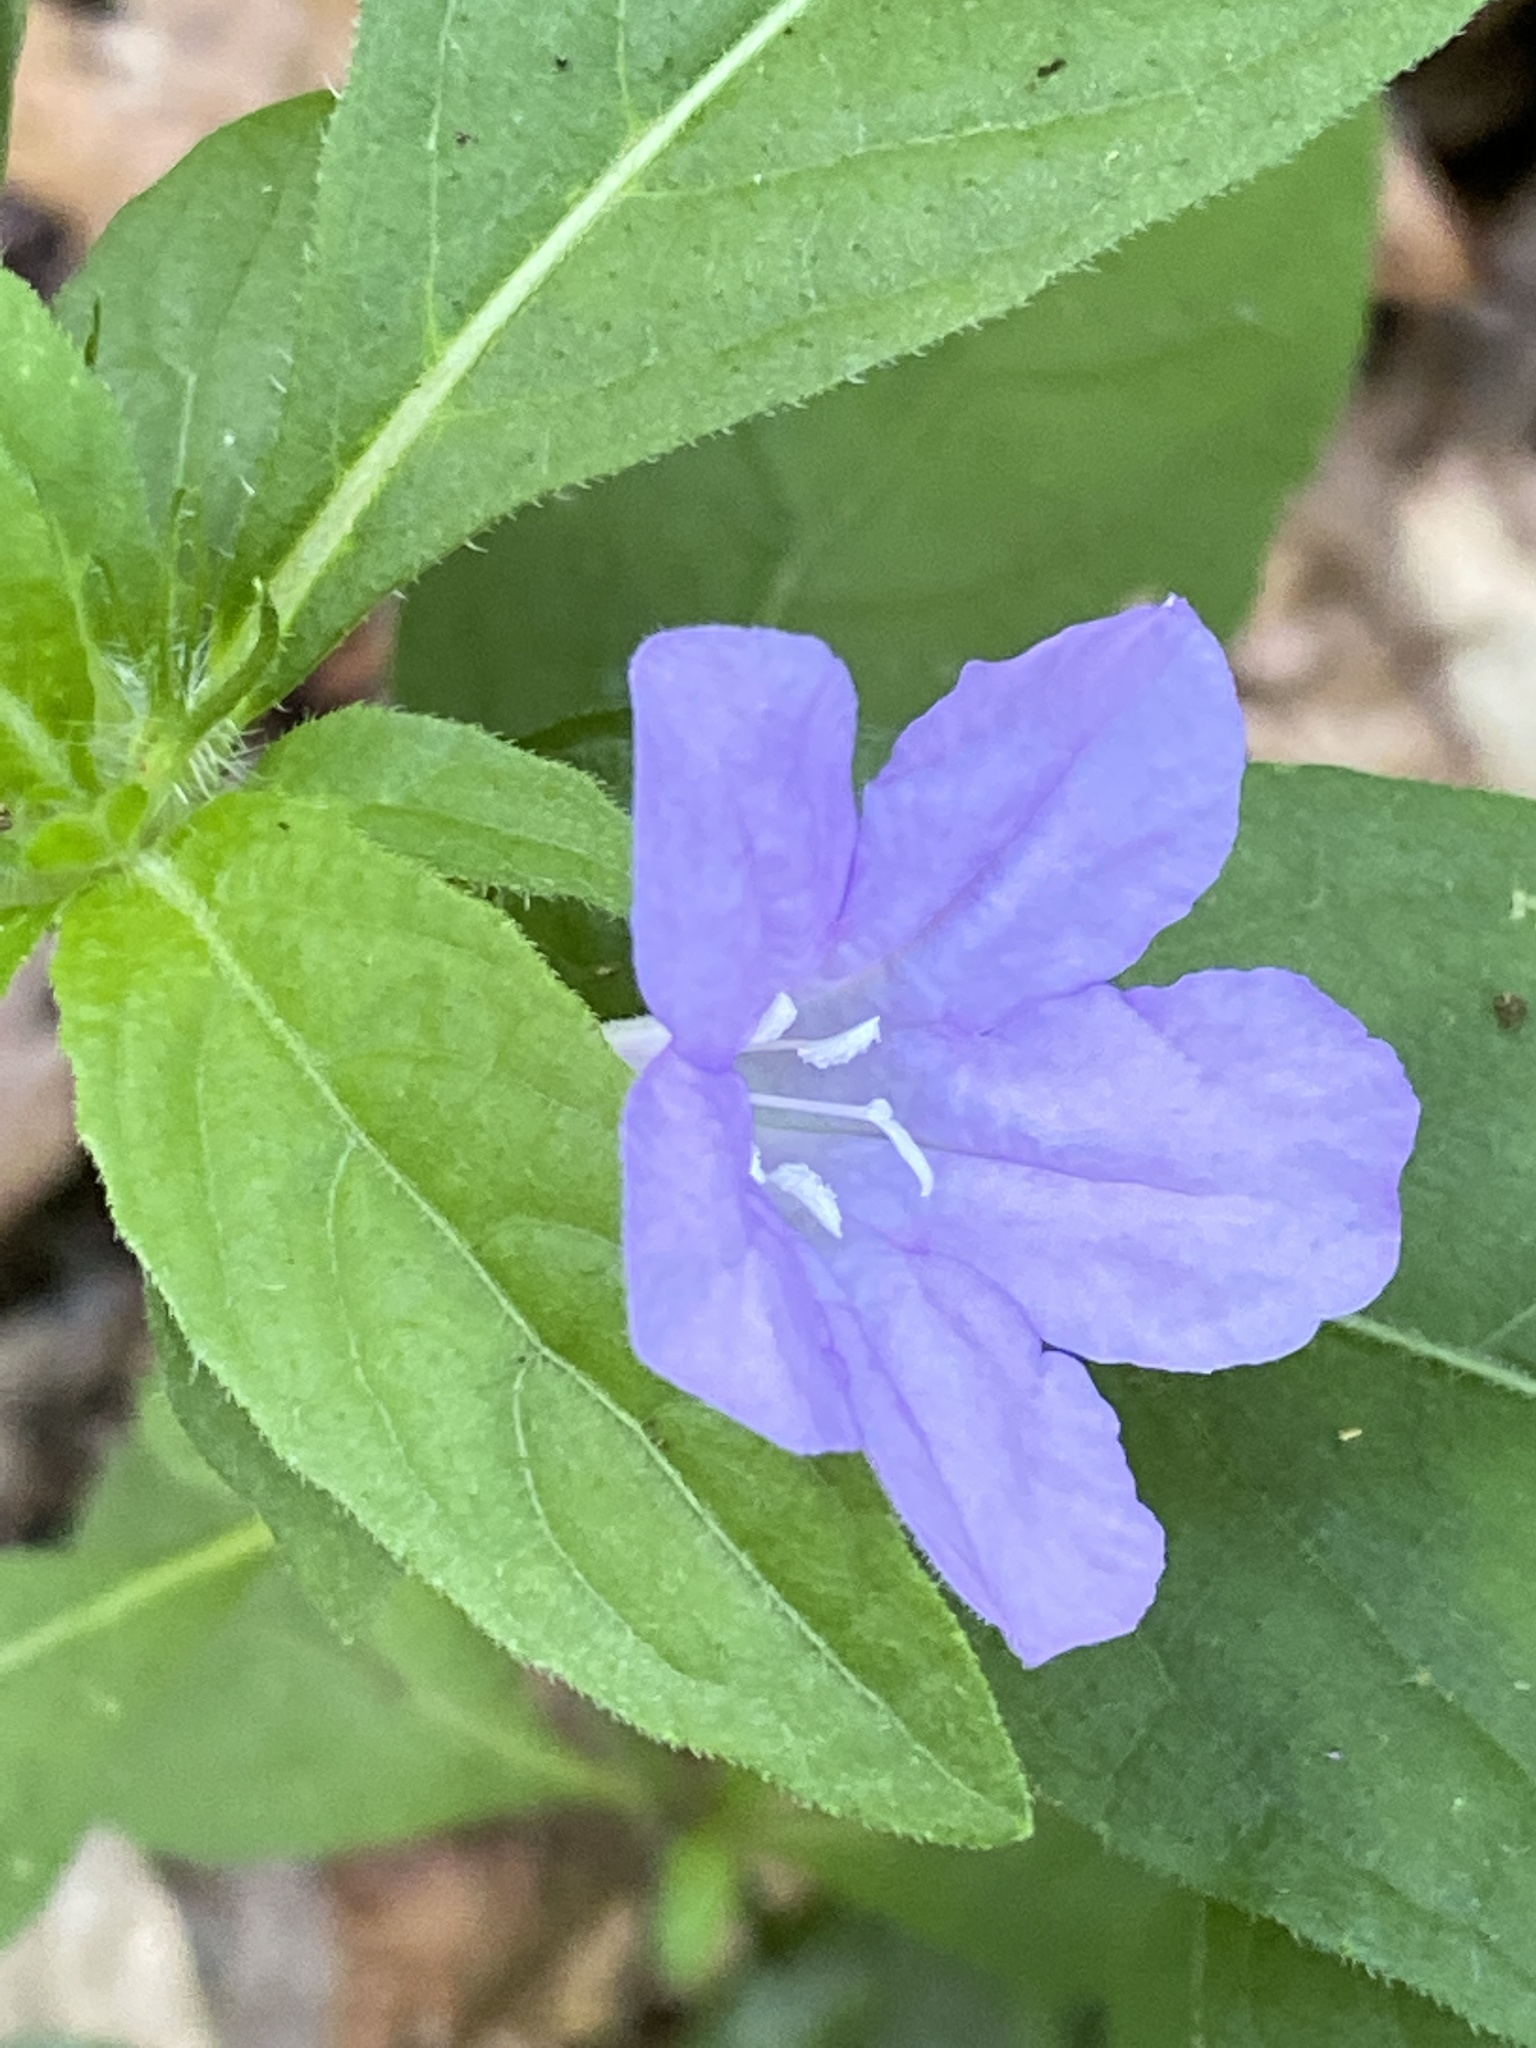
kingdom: Plantae
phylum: Tracheophyta
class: Magnoliopsida
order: Lamiales
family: Acanthaceae
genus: Ruellia
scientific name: Ruellia caroliniensis
